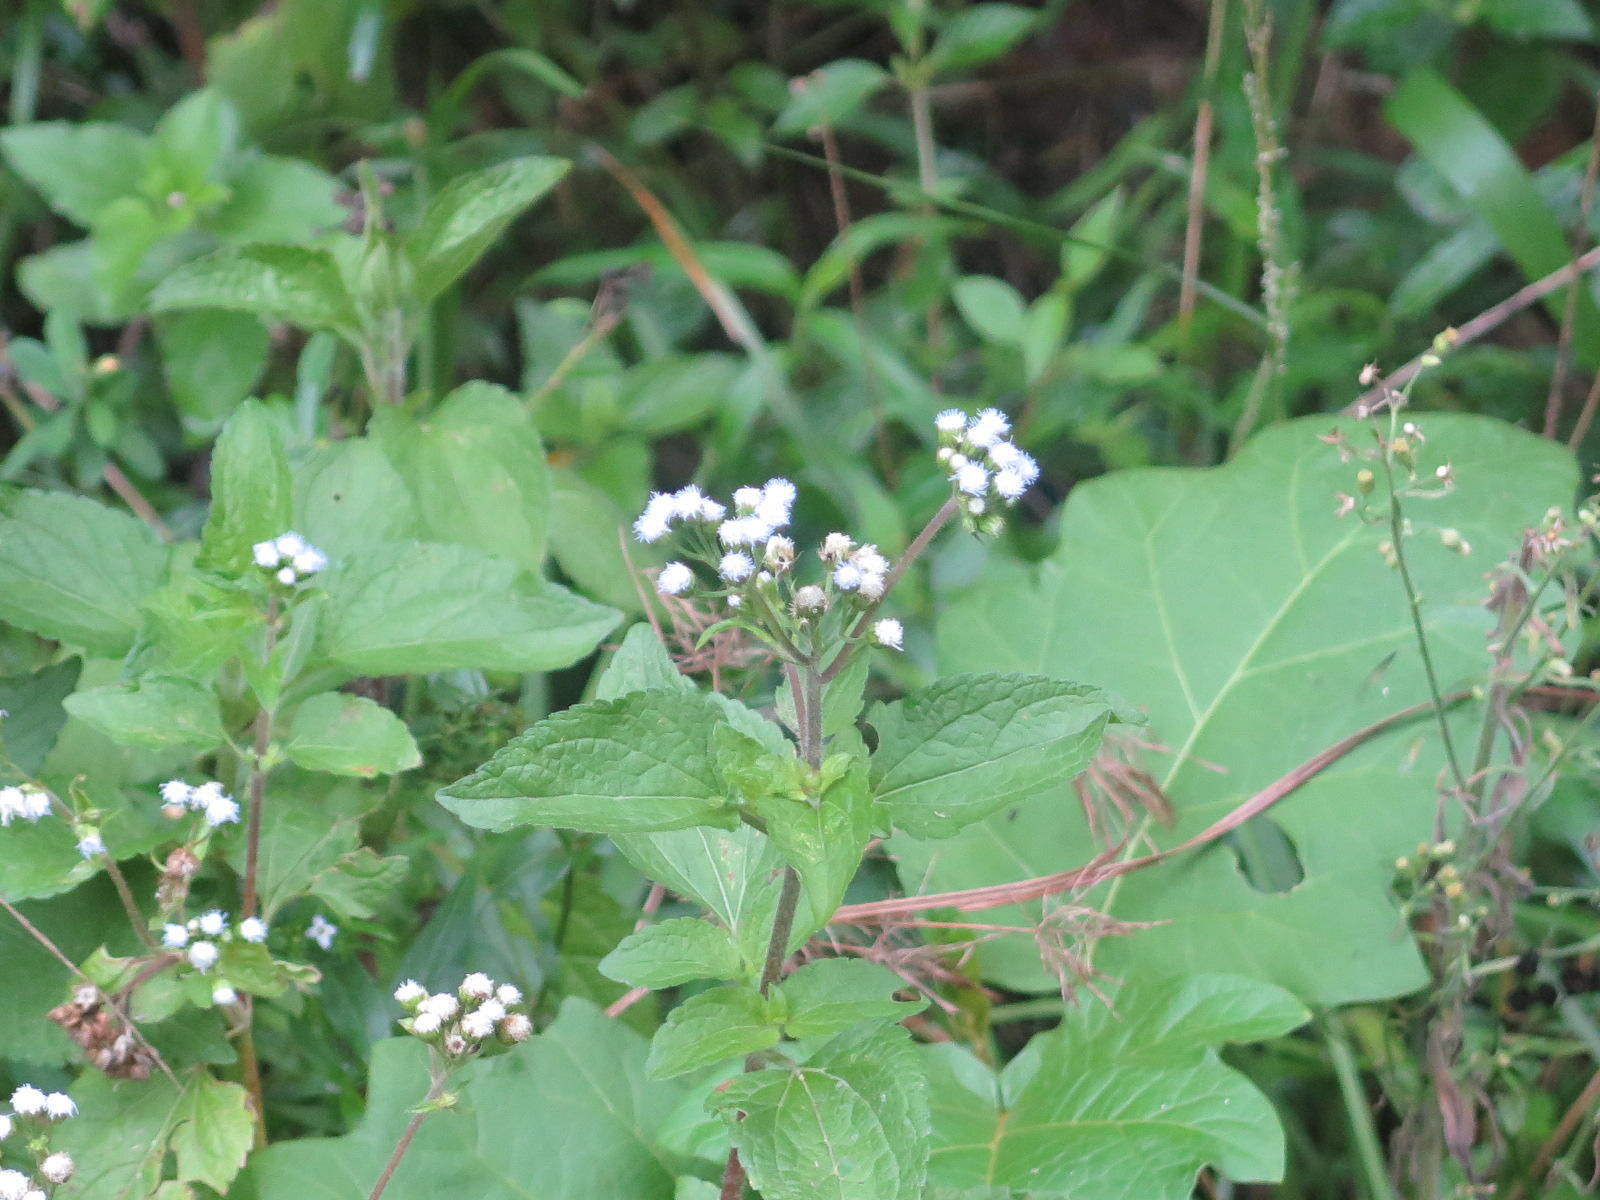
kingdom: Plantae
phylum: Tracheophyta
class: Magnoliopsida
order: Asterales
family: Asteraceae
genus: Ageratum
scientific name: Ageratum conyzoides
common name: Tropical whiteweed
